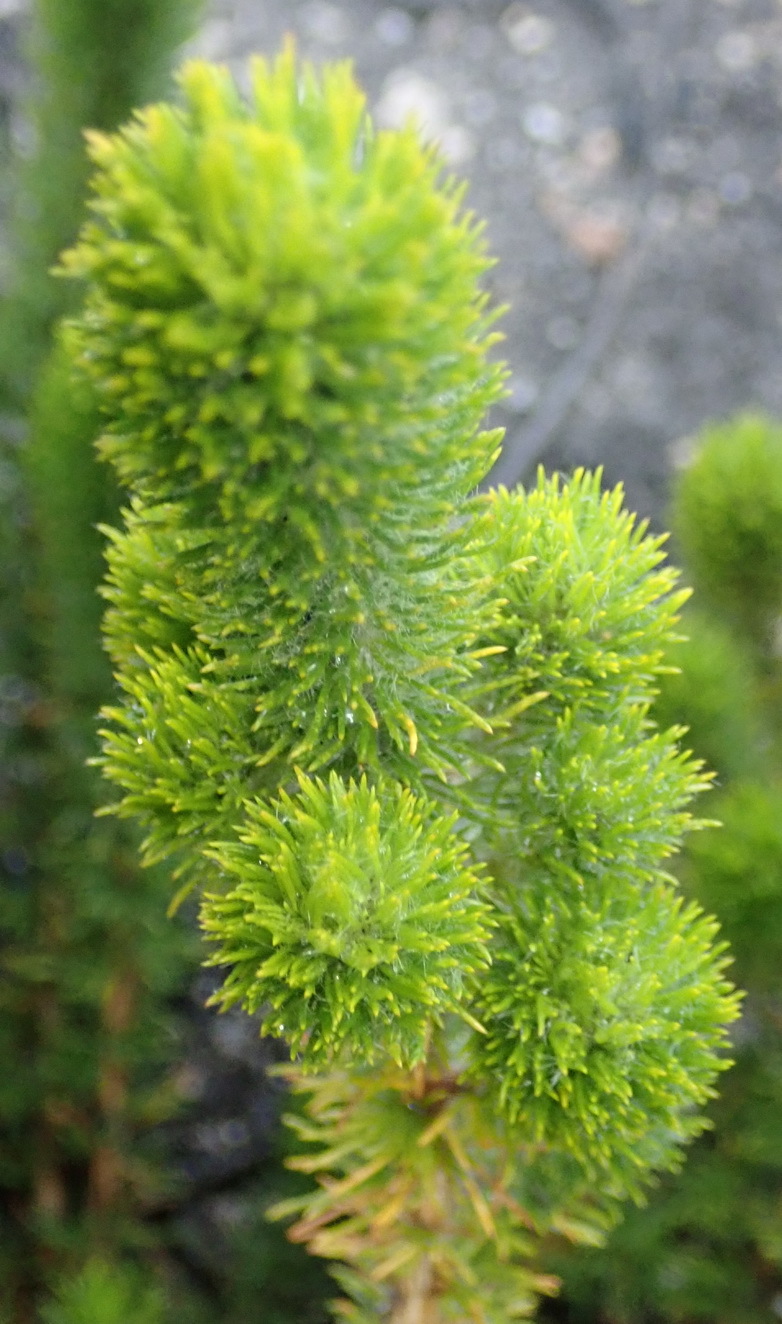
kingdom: Plantae
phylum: Tracheophyta
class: Magnoliopsida
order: Fabales
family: Fabaceae
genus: Aspalathus
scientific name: Aspalathus alopecurus
